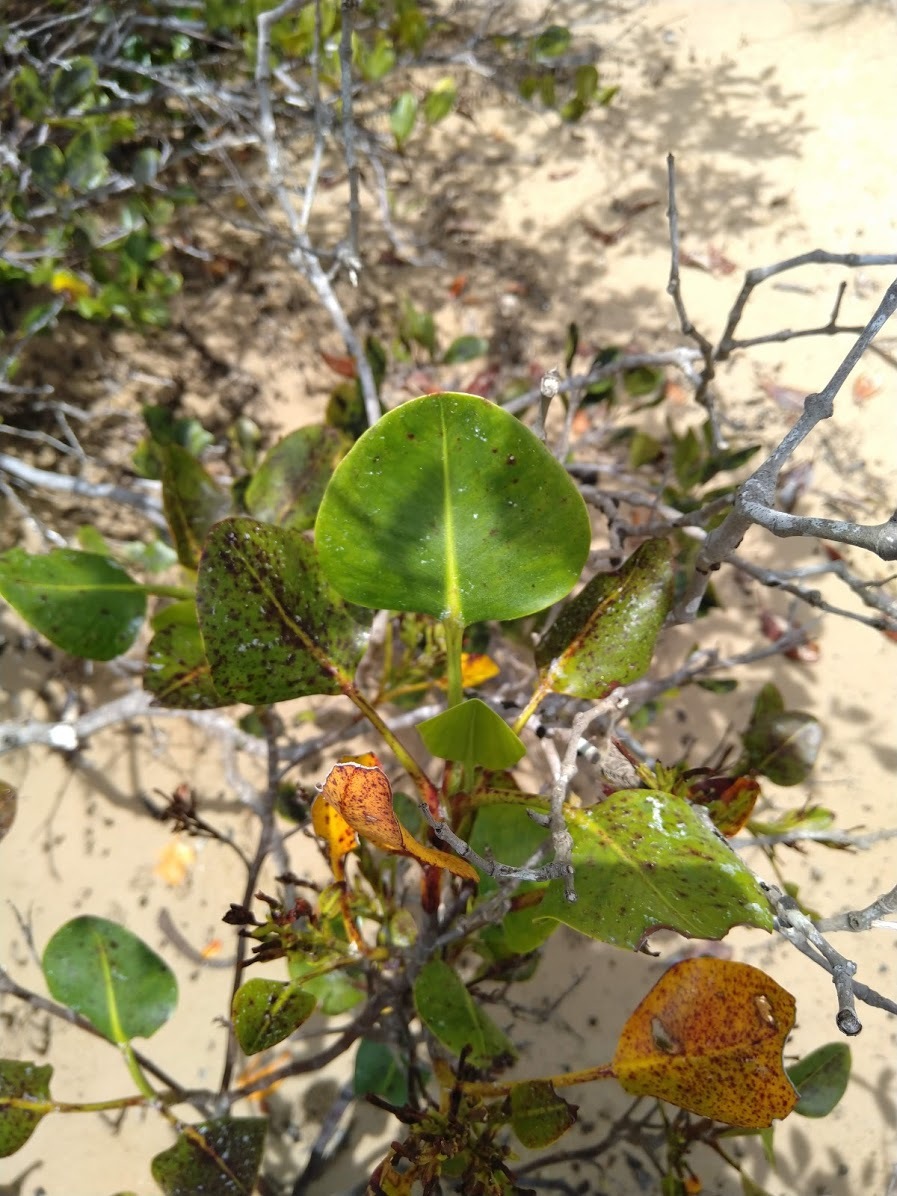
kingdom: Plantae
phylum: Tracheophyta
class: Magnoliopsida
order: Caryophyllales
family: Plumbaginaceae
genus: Aegialitis
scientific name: Aegialitis annulata
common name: Club mangrove
